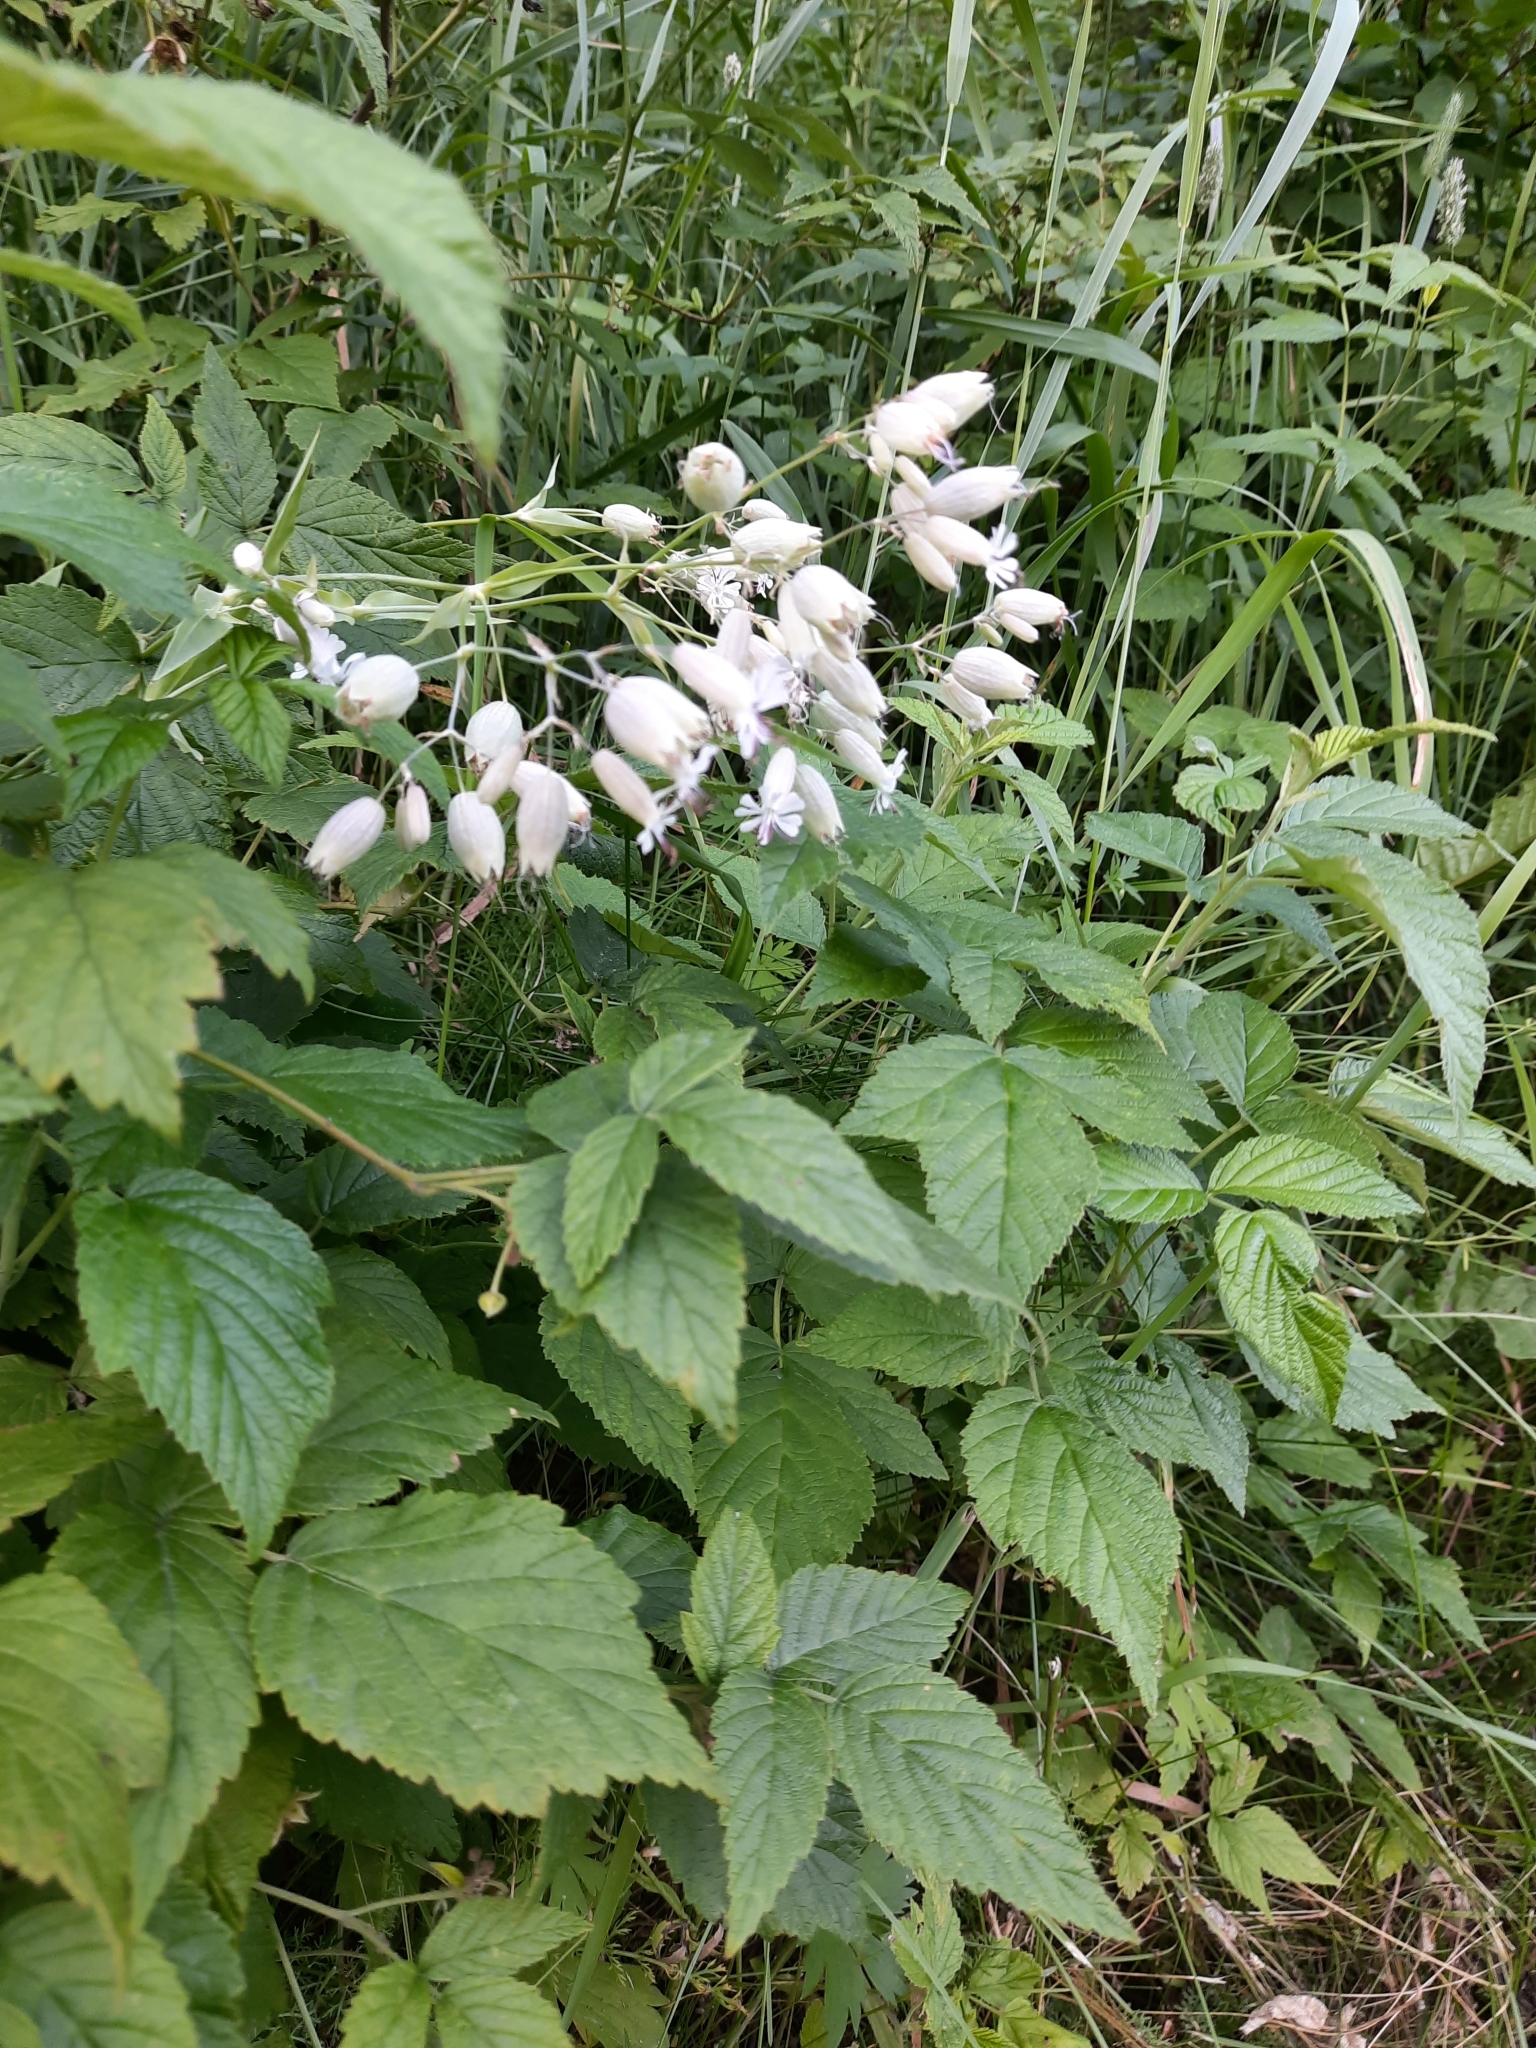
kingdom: Plantae
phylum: Tracheophyta
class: Magnoliopsida
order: Caryophyllales
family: Caryophyllaceae
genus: Silene
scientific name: Silene vulgaris
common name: Bladder campion
